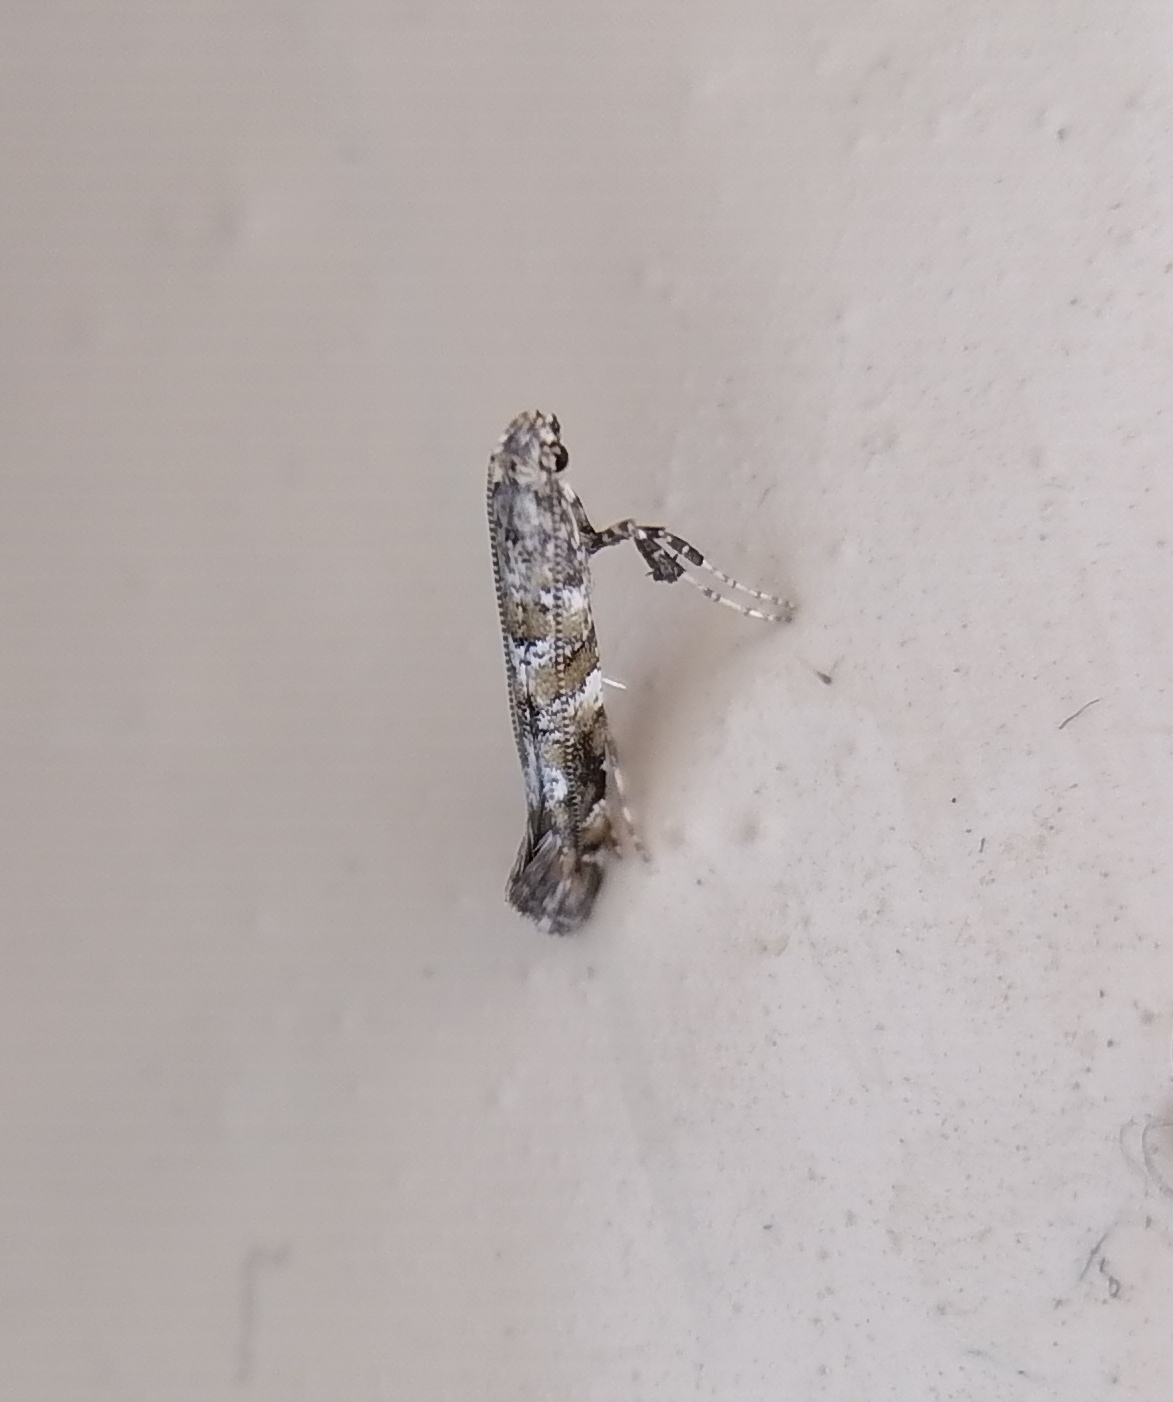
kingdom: Animalia
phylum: Arthropoda
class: Insecta
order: Lepidoptera
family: Gracillariidae
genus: Gracillaria
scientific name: Gracillaria syringella
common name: Common slender
